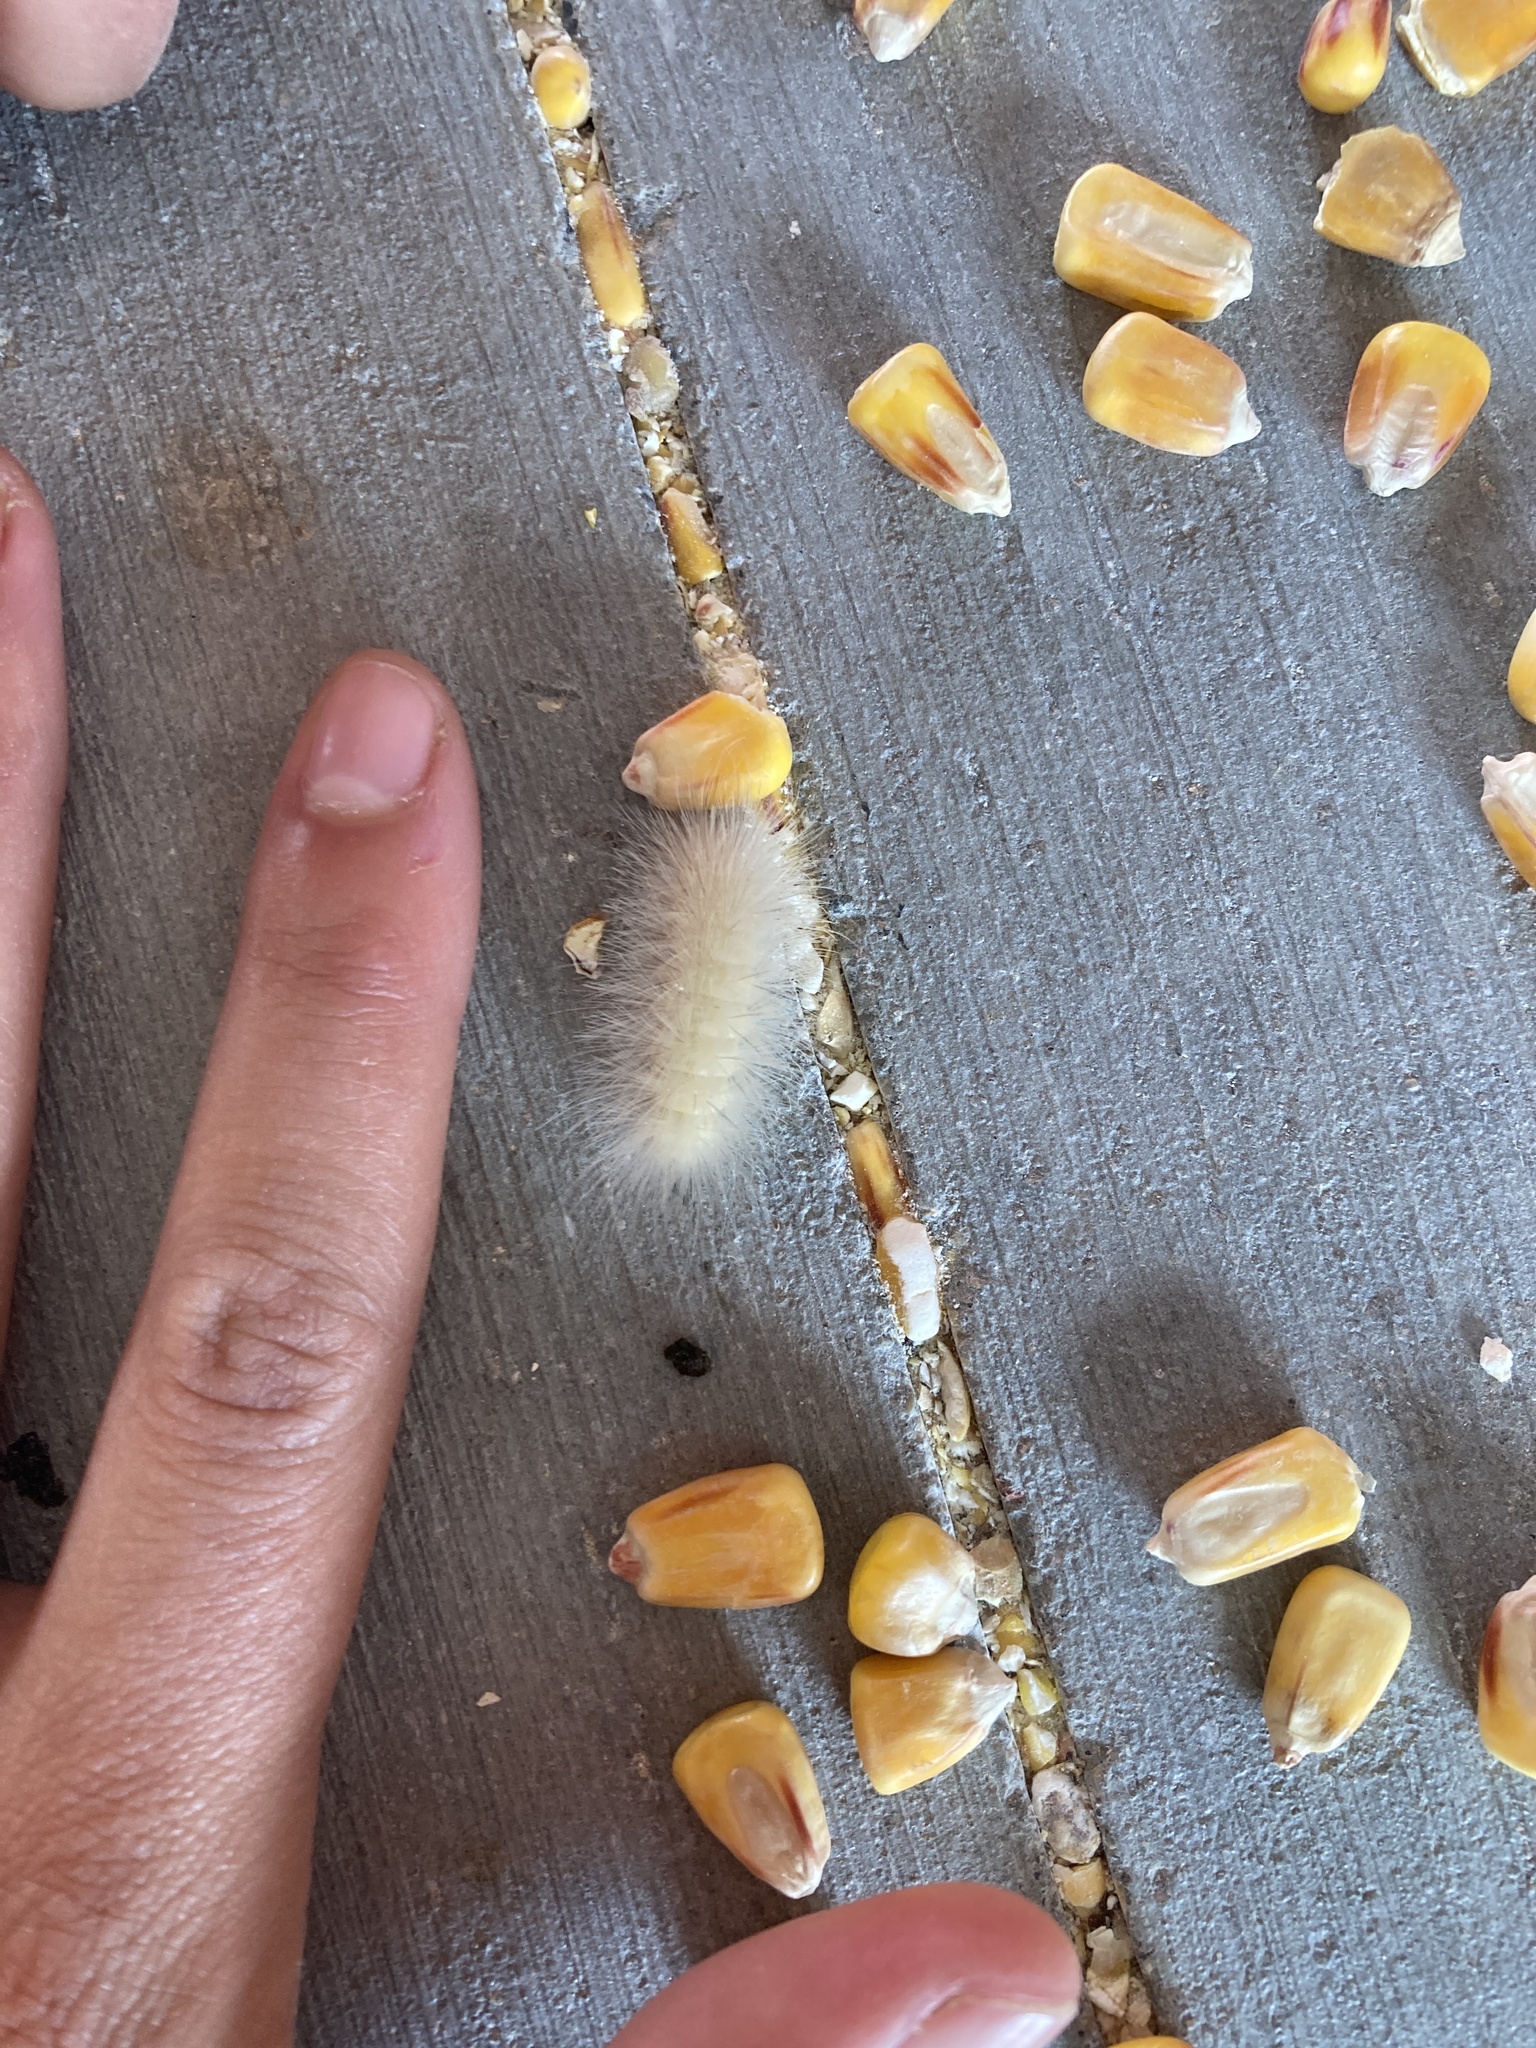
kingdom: Animalia
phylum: Arthropoda
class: Insecta
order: Lepidoptera
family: Erebidae
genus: Spilosoma
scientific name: Spilosoma virginica
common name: Virginia tiger moth
